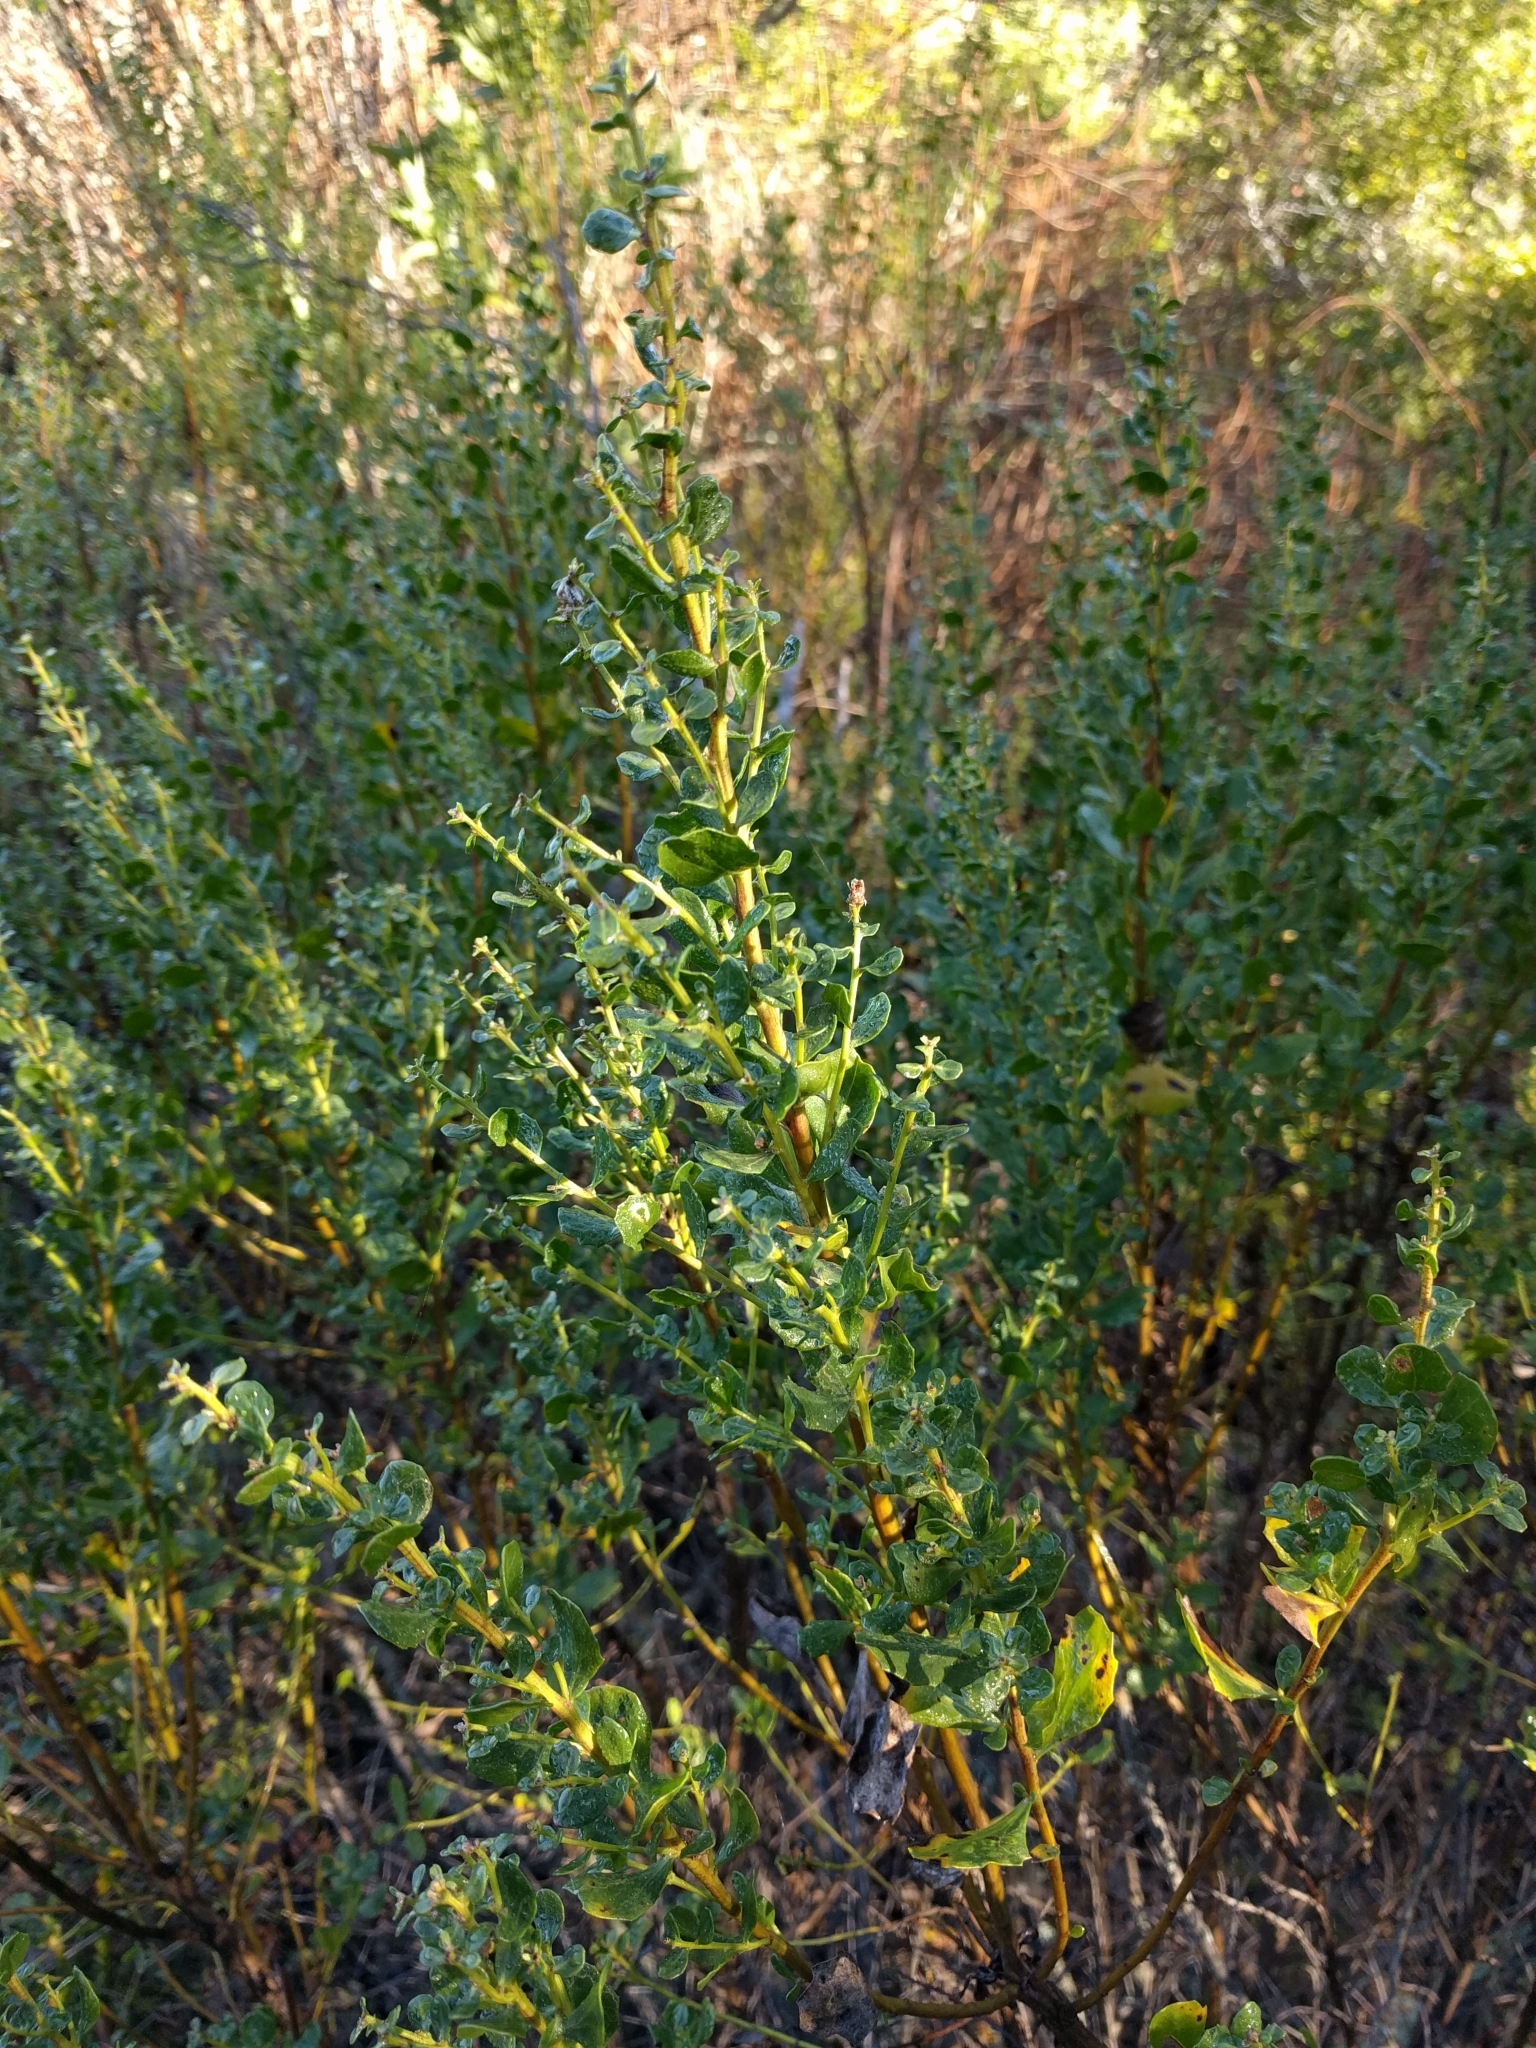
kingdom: Plantae
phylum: Tracheophyta
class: Magnoliopsida
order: Asterales
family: Asteraceae
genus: Baccharis
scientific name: Baccharis pilularis
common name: Coyotebrush
